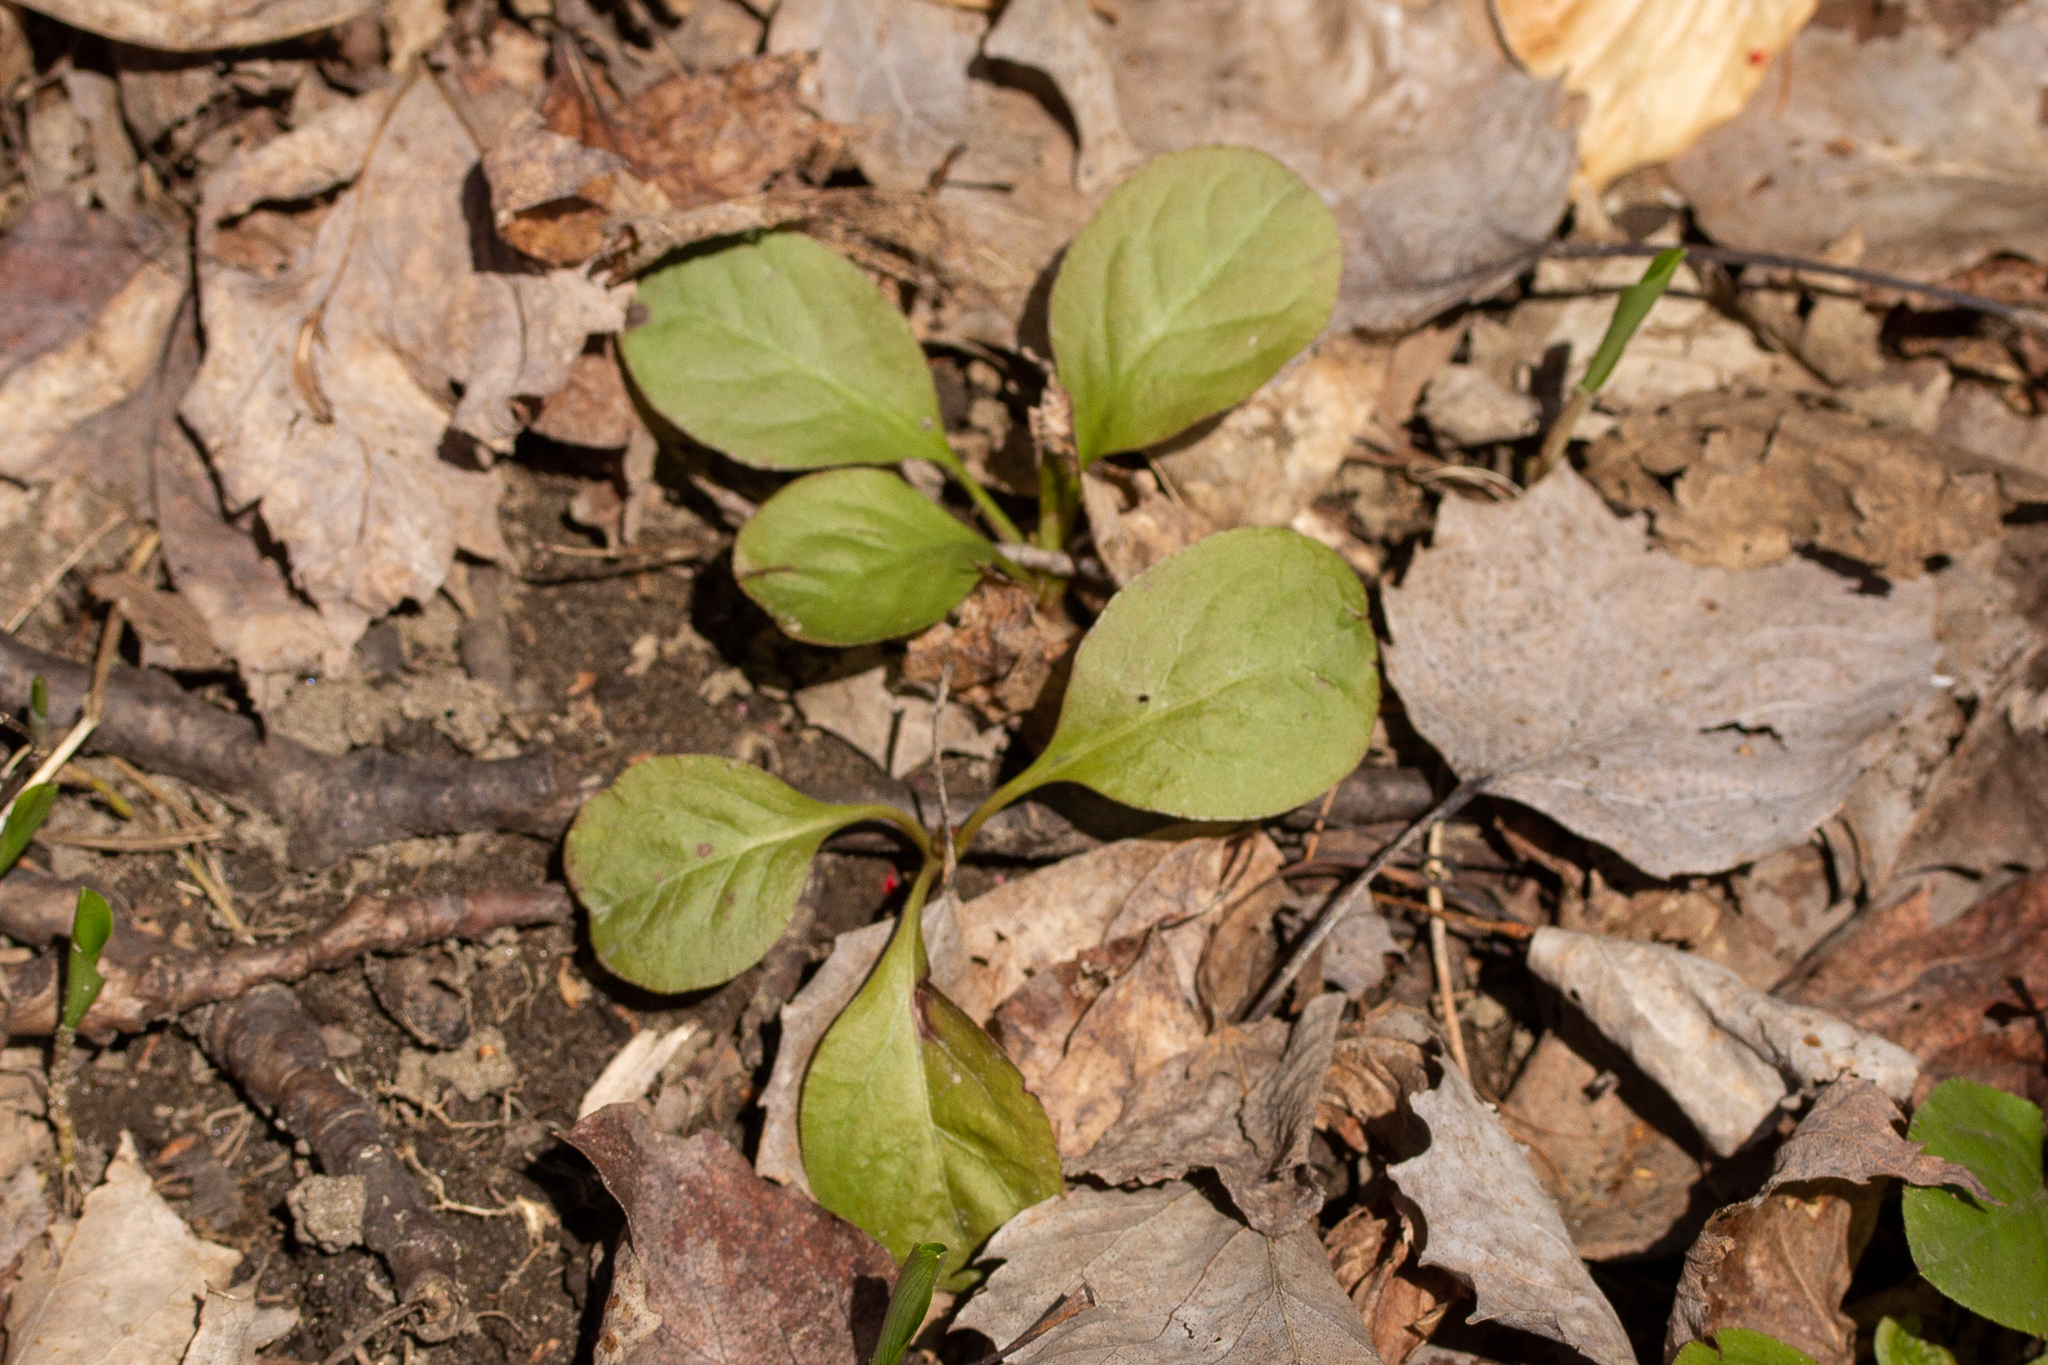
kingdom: Plantae
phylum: Tracheophyta
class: Magnoliopsida
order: Ericales
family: Ericaceae
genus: Pyrola
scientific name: Pyrola elliptica
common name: Shinleaf
